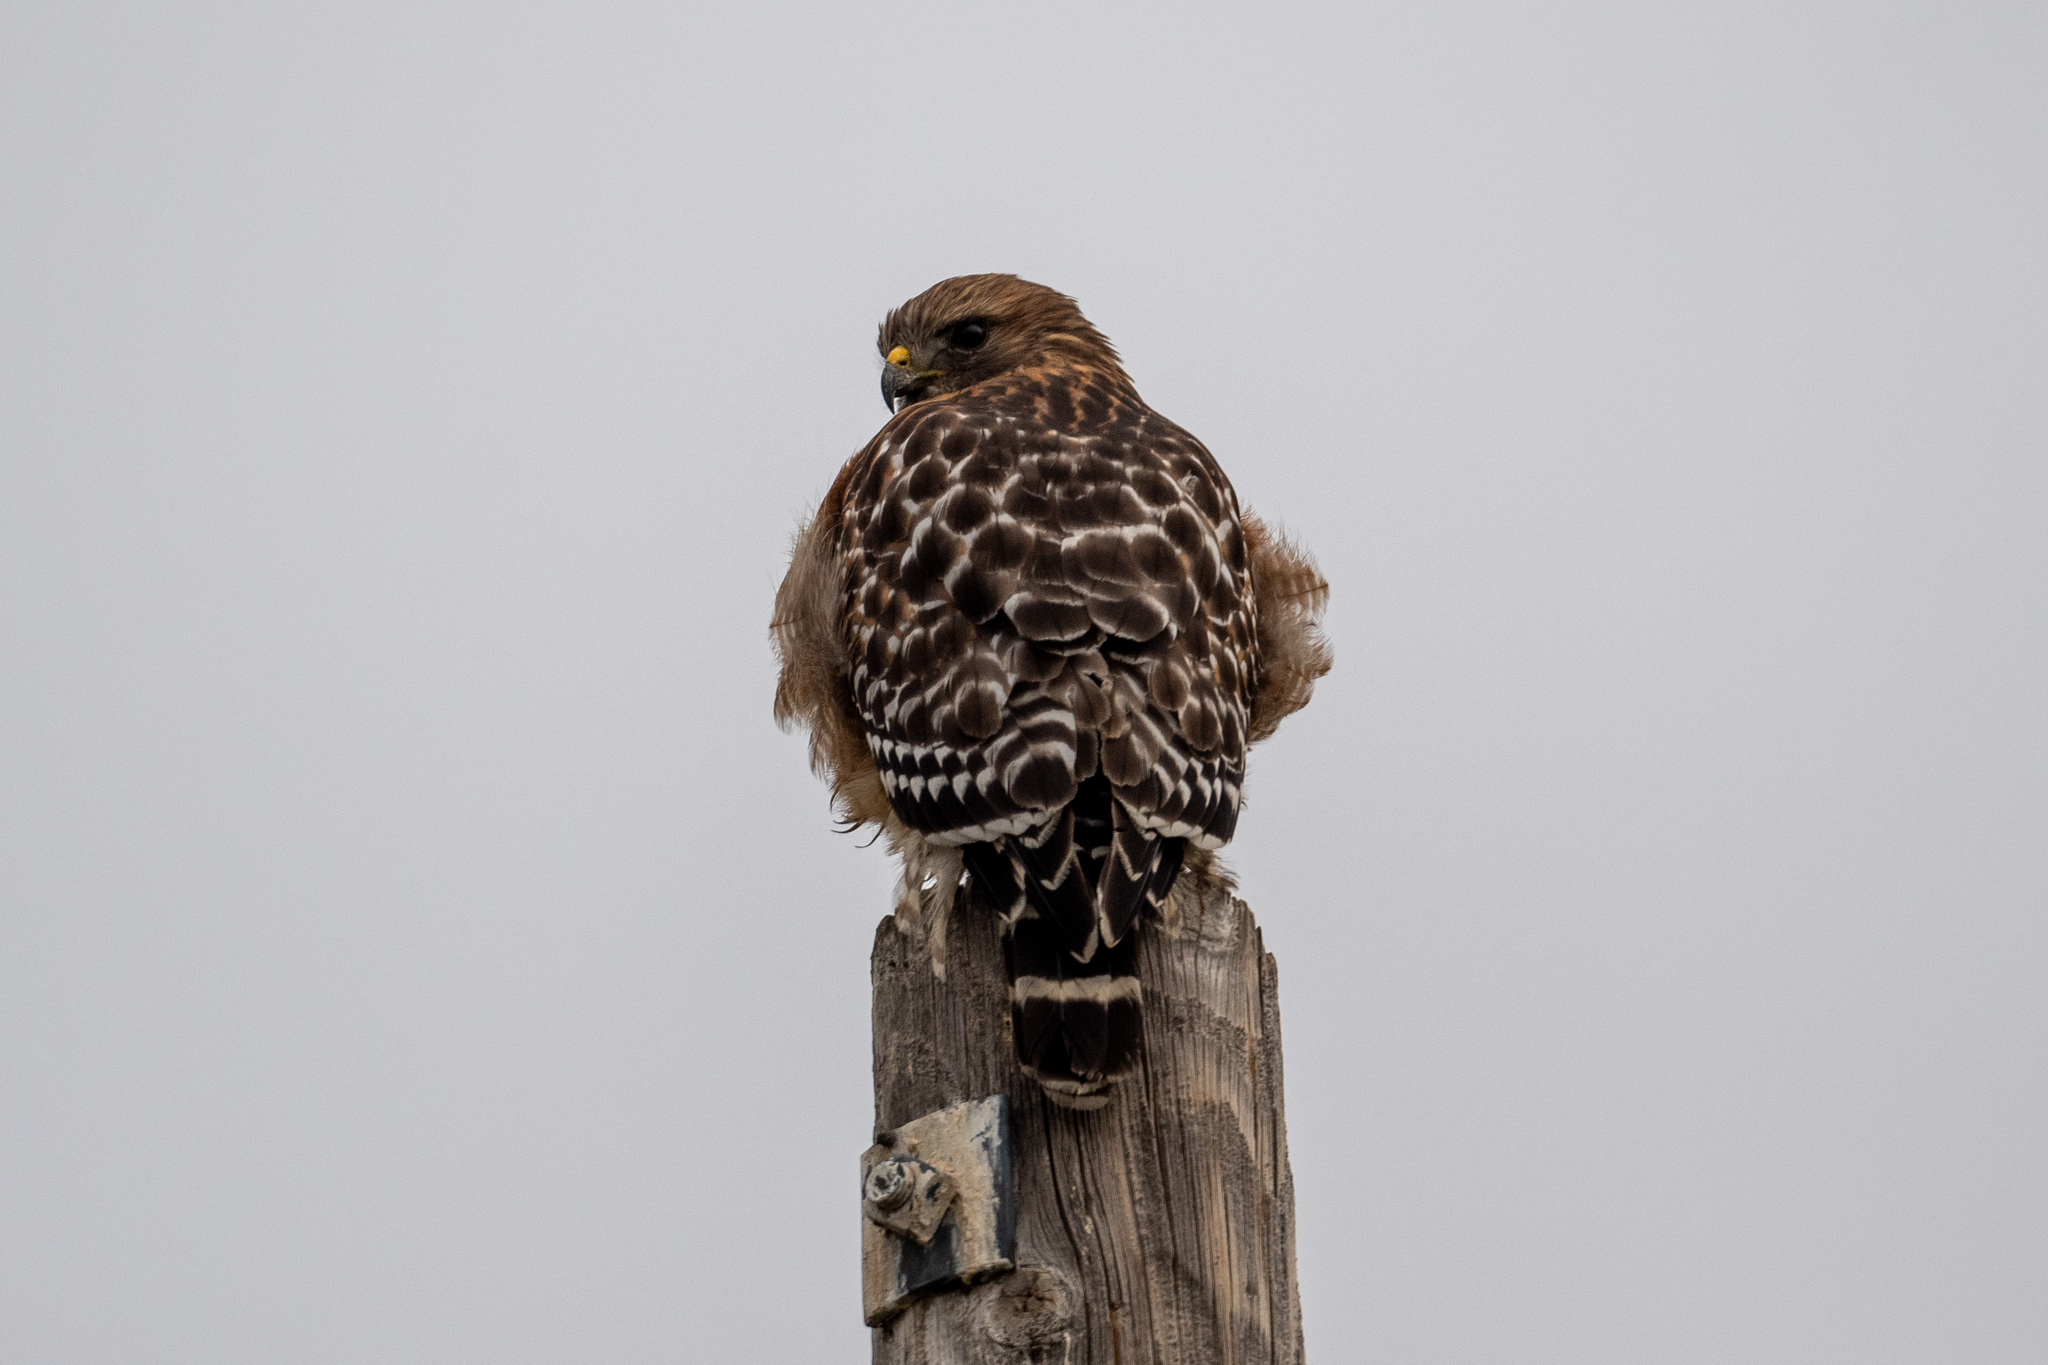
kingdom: Animalia
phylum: Chordata
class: Aves
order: Accipitriformes
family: Accipitridae
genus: Buteo
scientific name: Buteo lineatus
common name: Red-shouldered hawk
